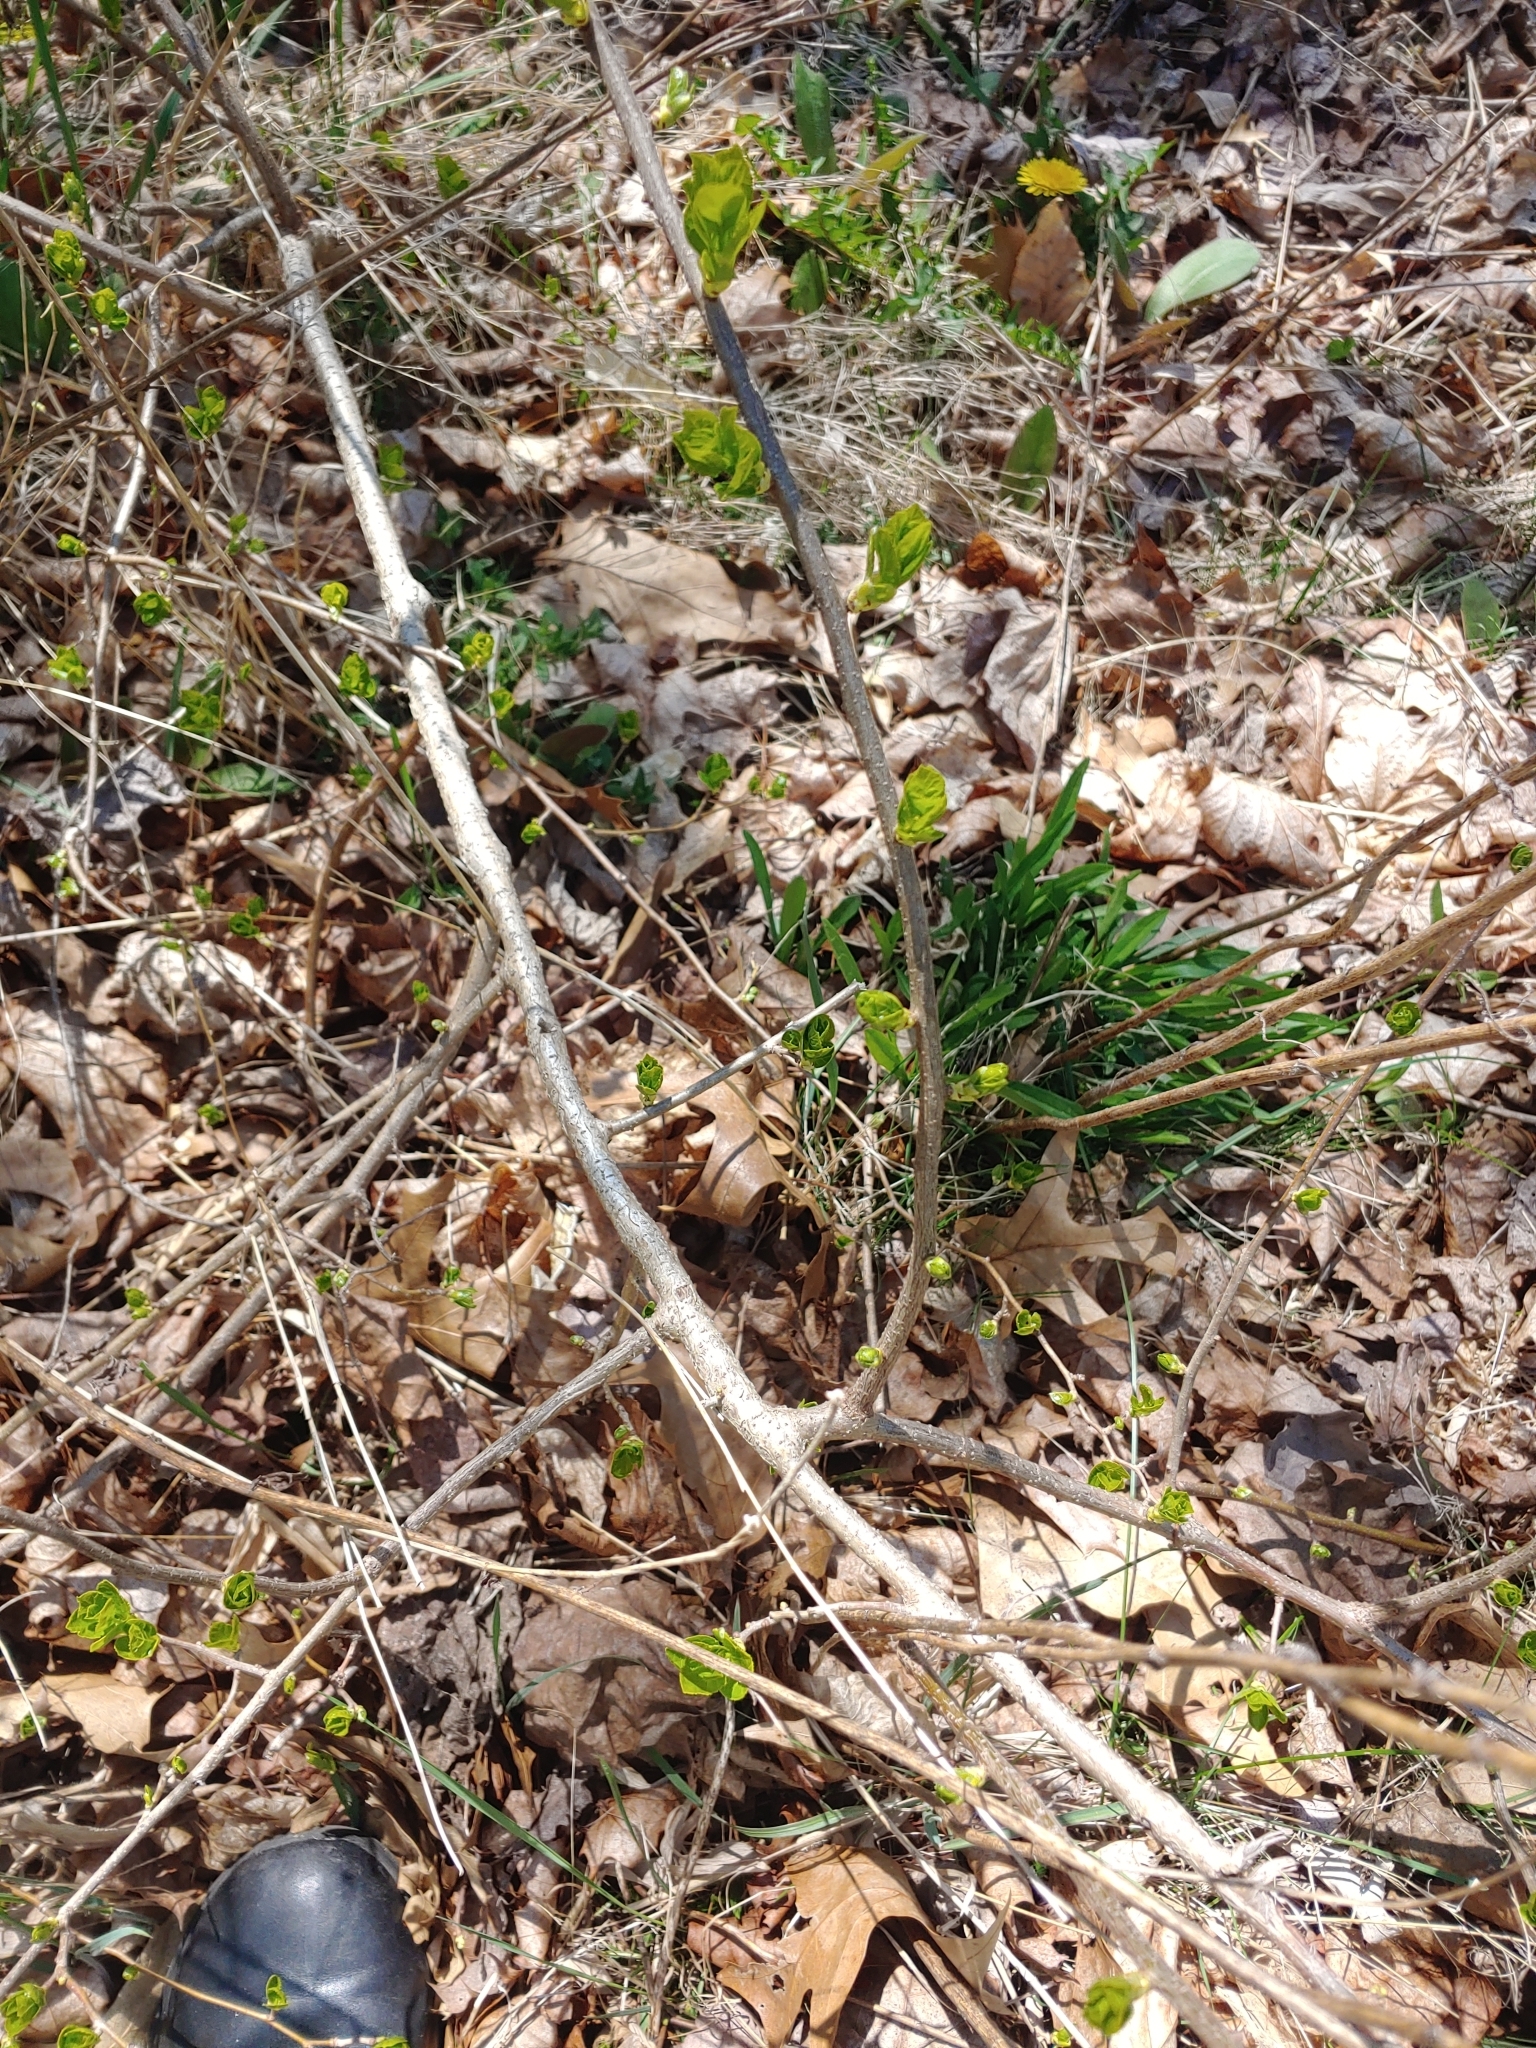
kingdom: Plantae
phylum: Tracheophyta
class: Magnoliopsida
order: Celastrales
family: Celastraceae
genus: Celastrus
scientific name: Celastrus orbiculatus
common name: Oriental bittersweet
